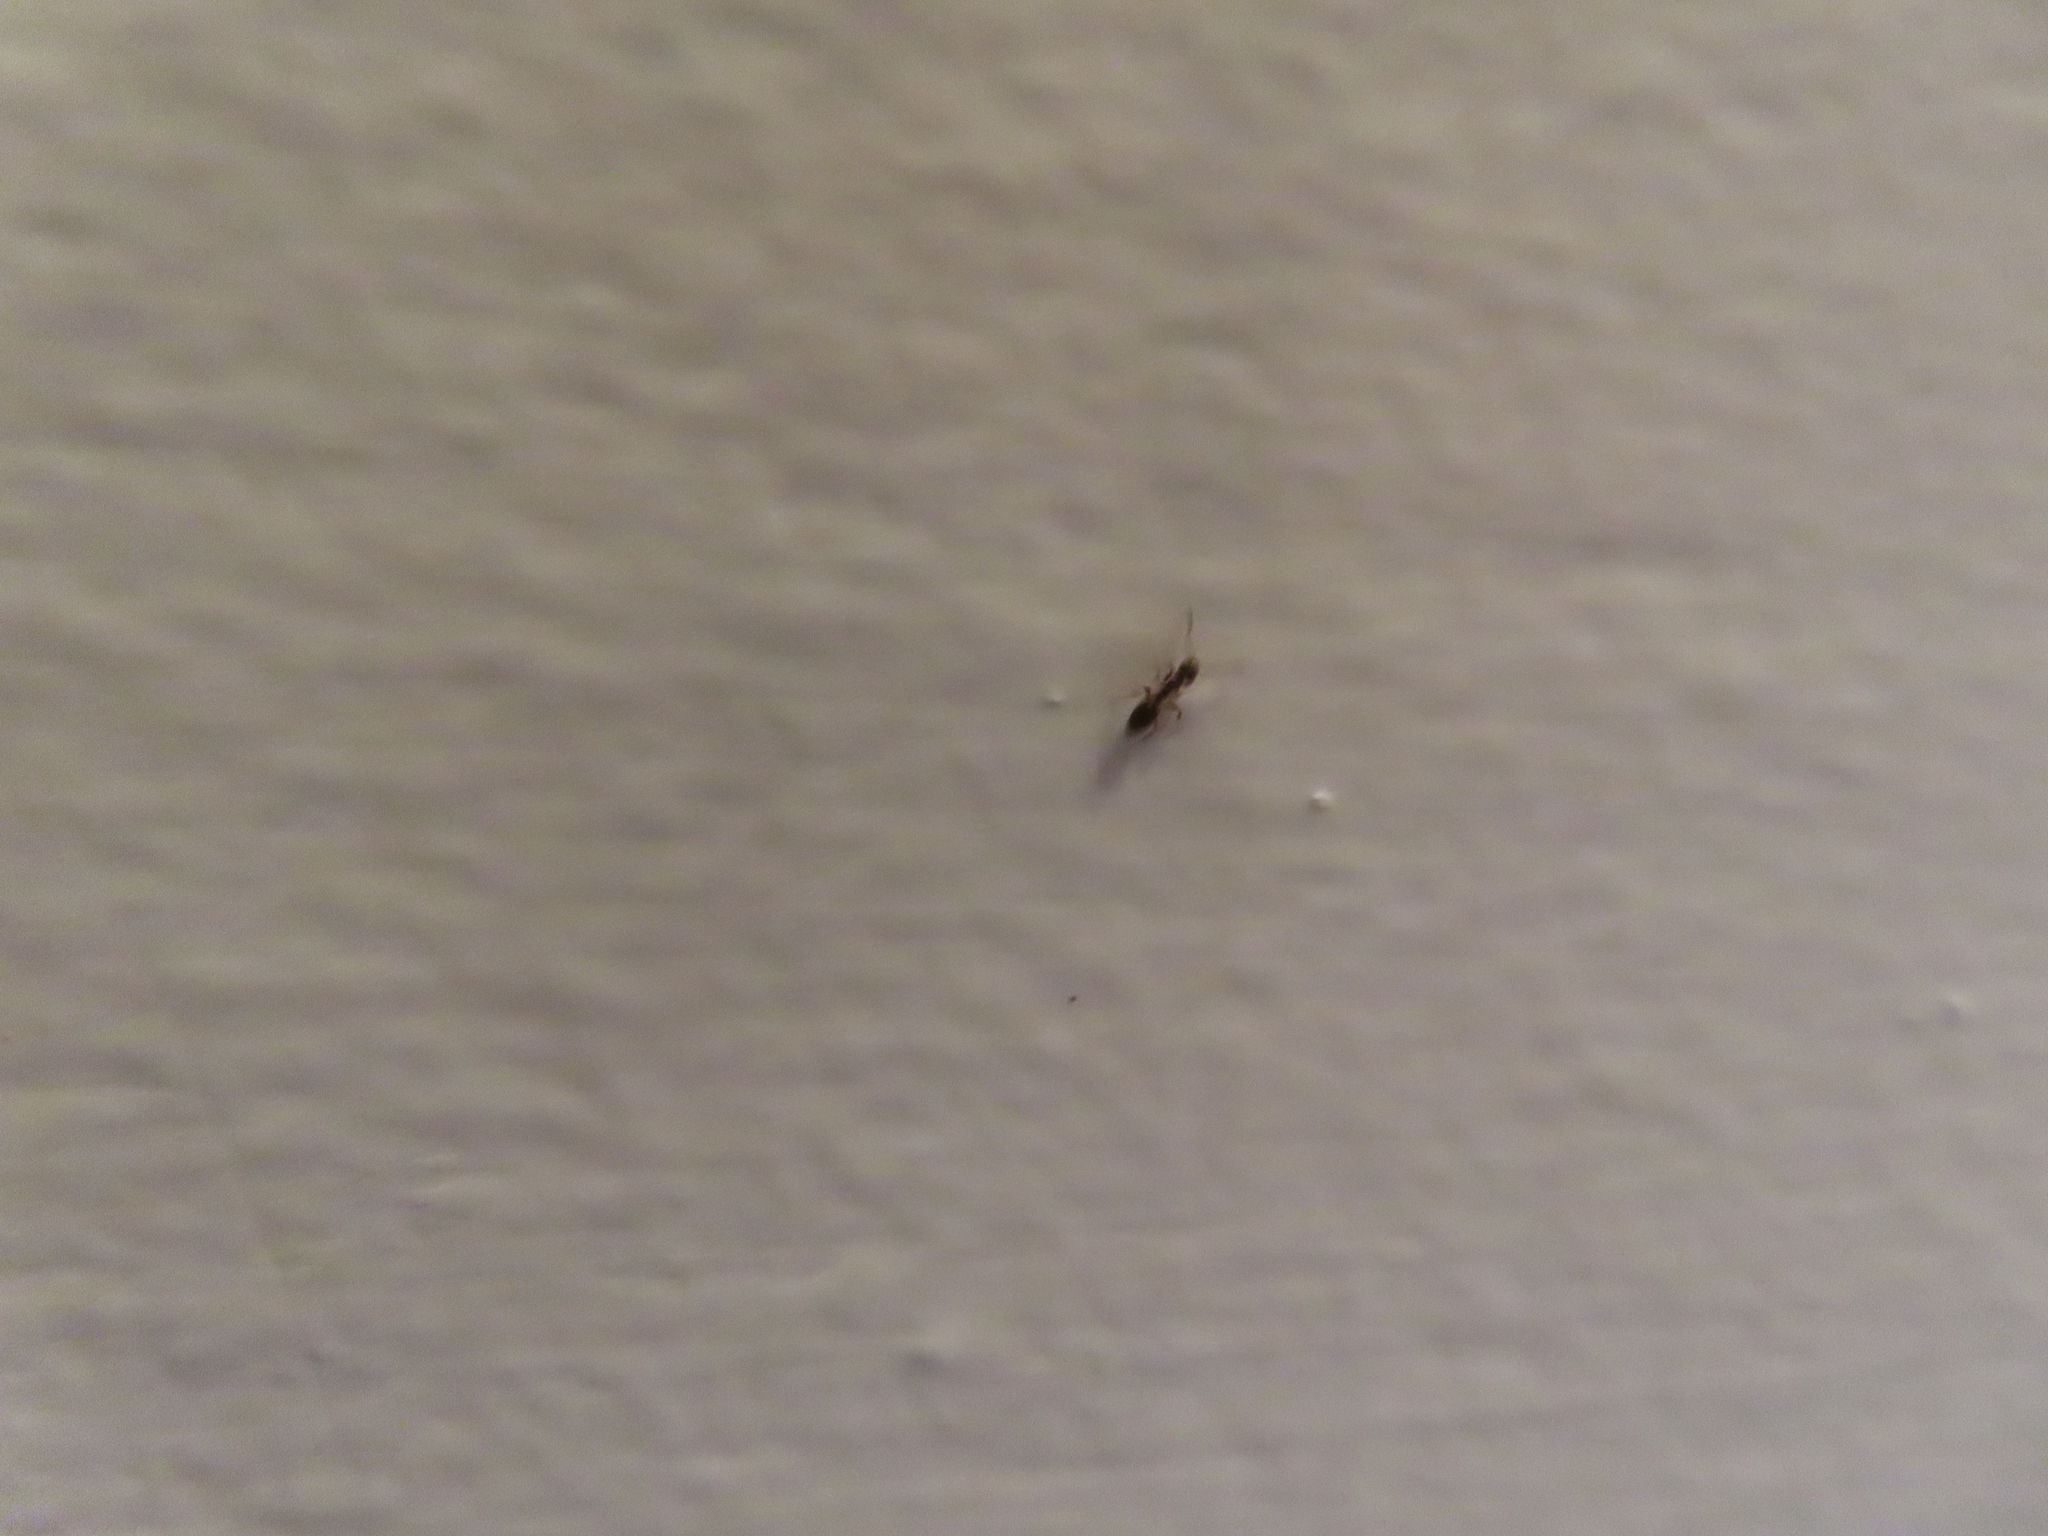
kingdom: Animalia
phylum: Arthropoda
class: Insecta
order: Hymenoptera
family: Formicidae
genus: Tapinoma
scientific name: Tapinoma sessile
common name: Odorous house ant
